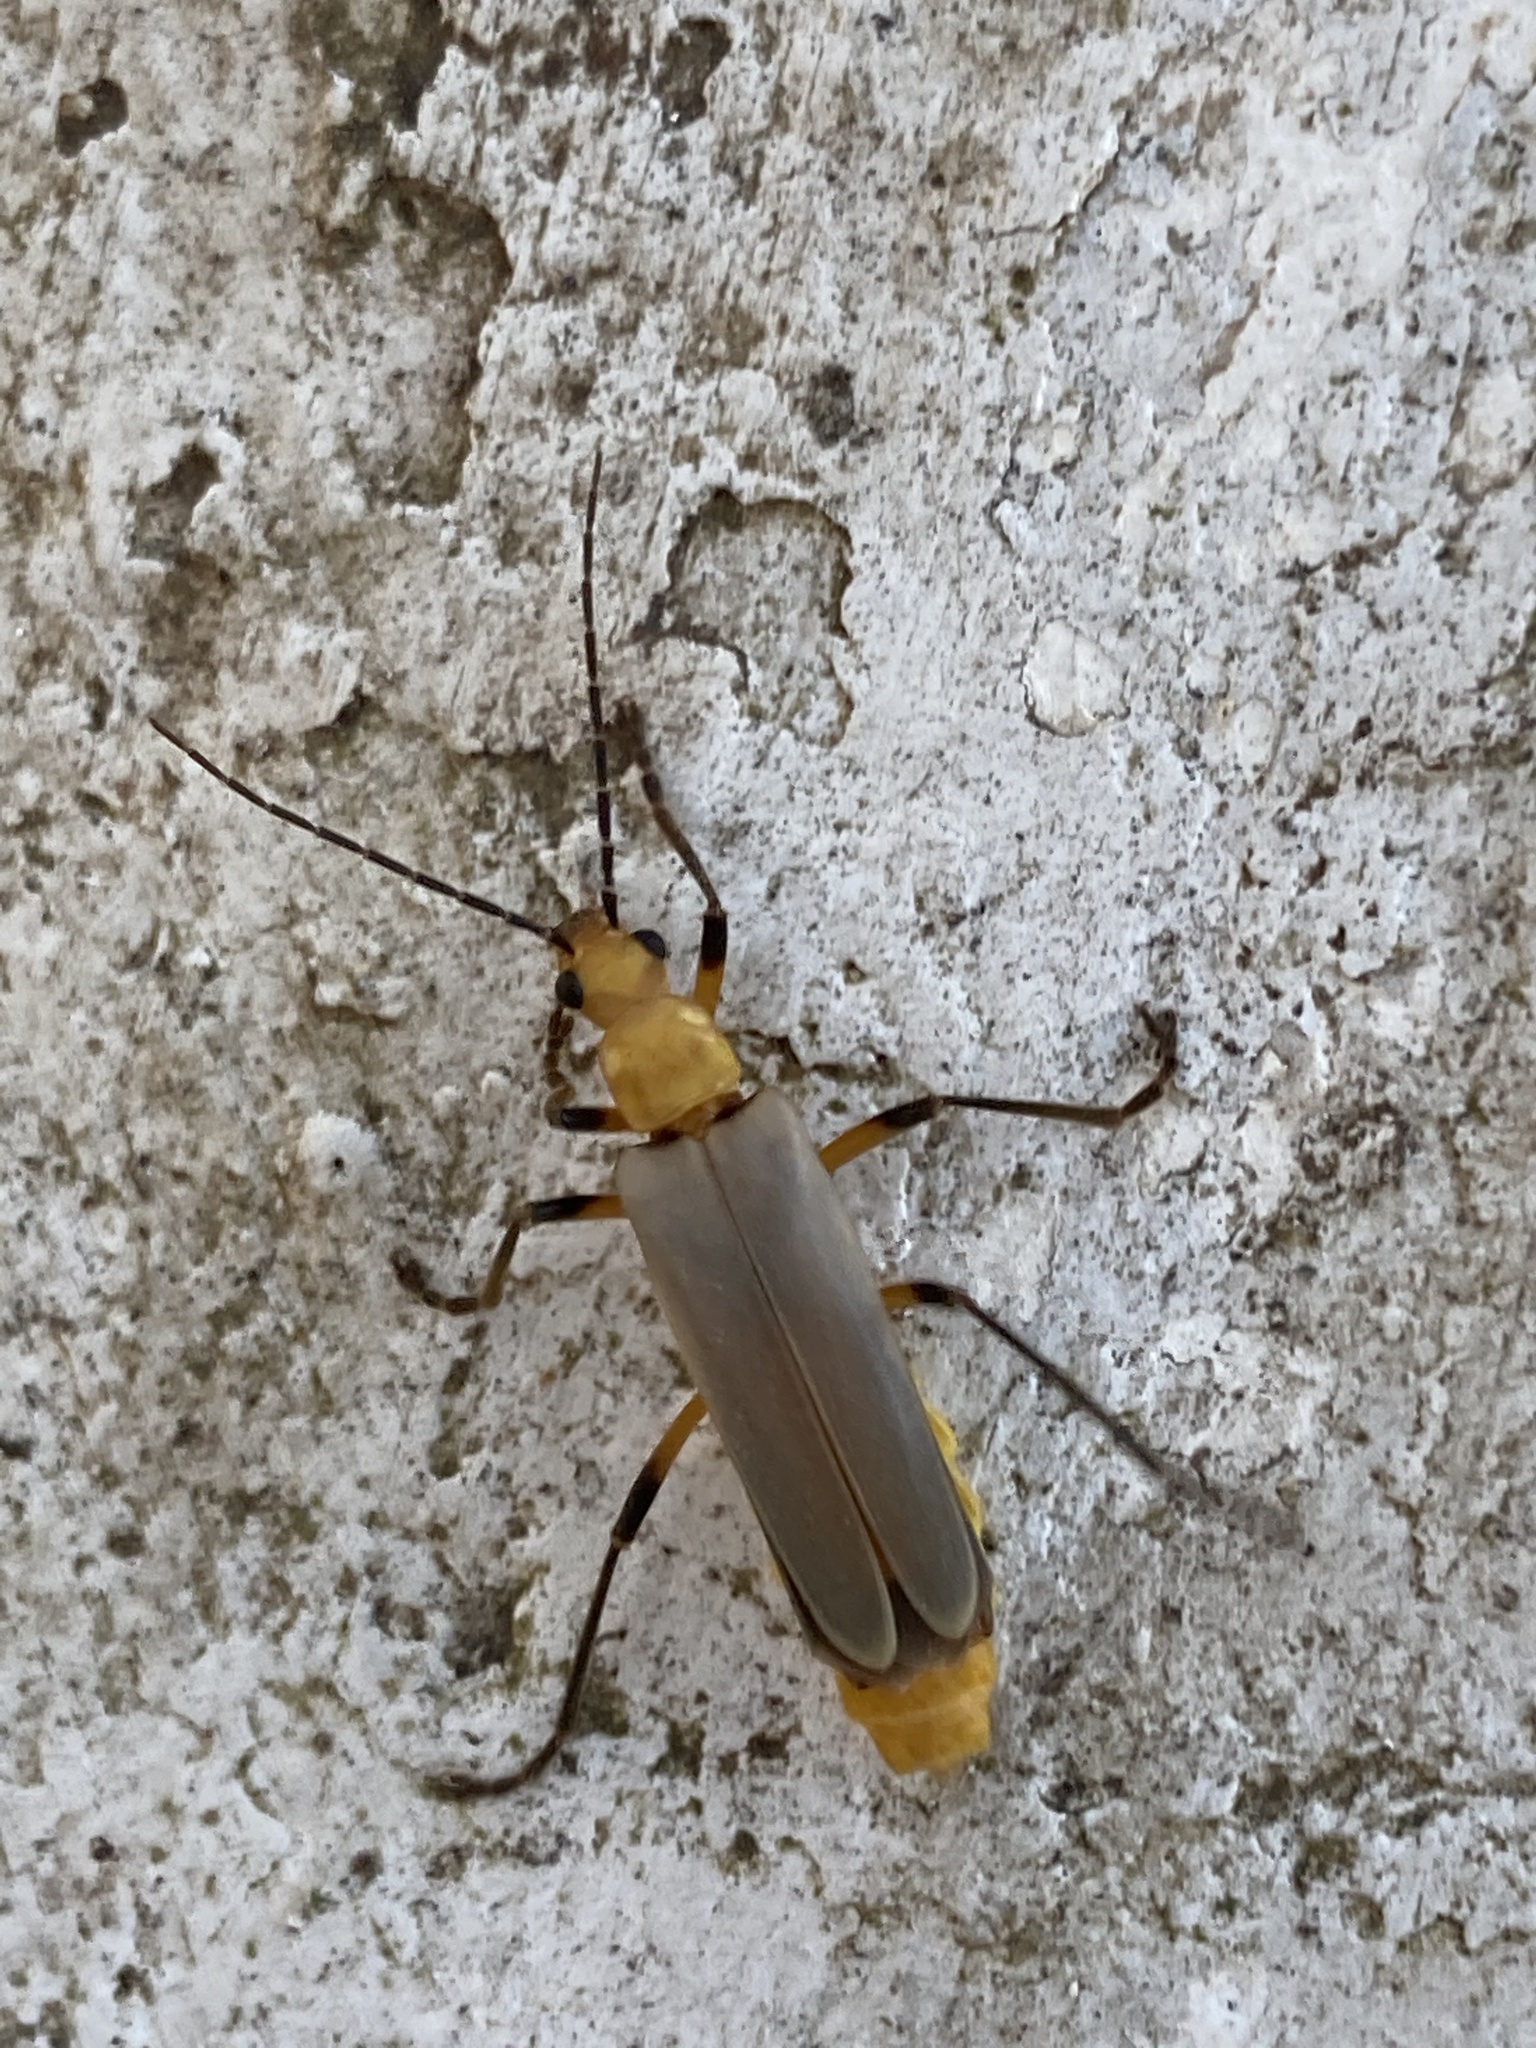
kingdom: Animalia
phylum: Arthropoda
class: Insecta
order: Coleoptera
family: Cantharidae
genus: Chauliognathus
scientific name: Chauliognathus
